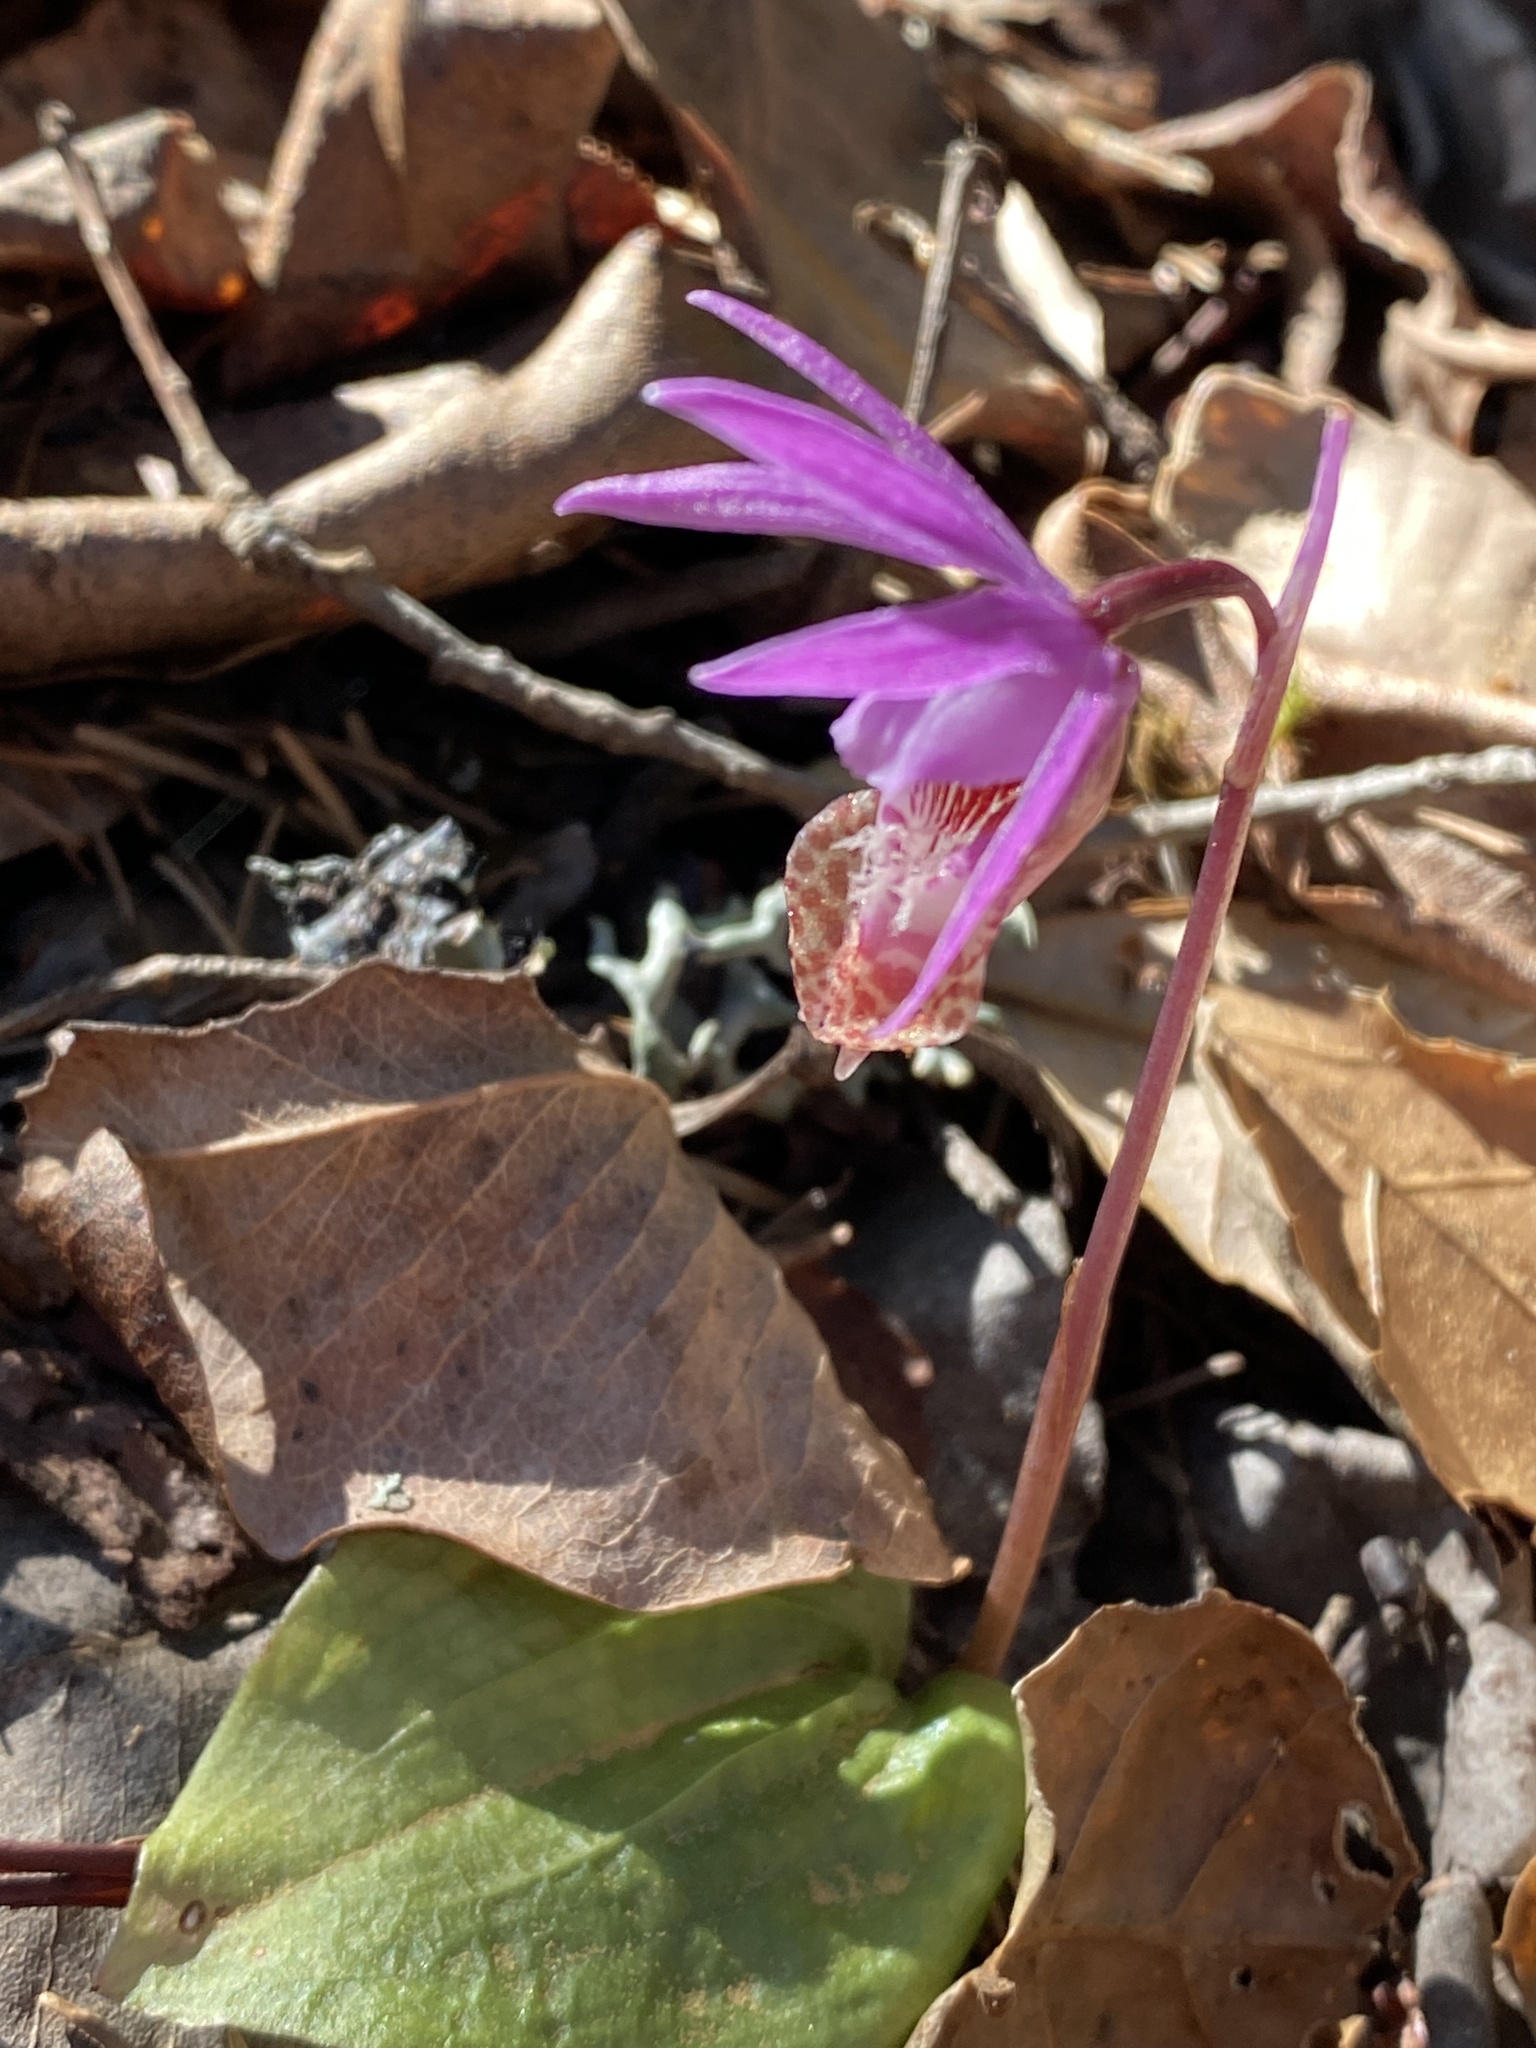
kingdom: Plantae
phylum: Tracheophyta
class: Liliopsida
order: Asparagales
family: Orchidaceae
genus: Calypso
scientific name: Calypso bulbosa
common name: Calypso
